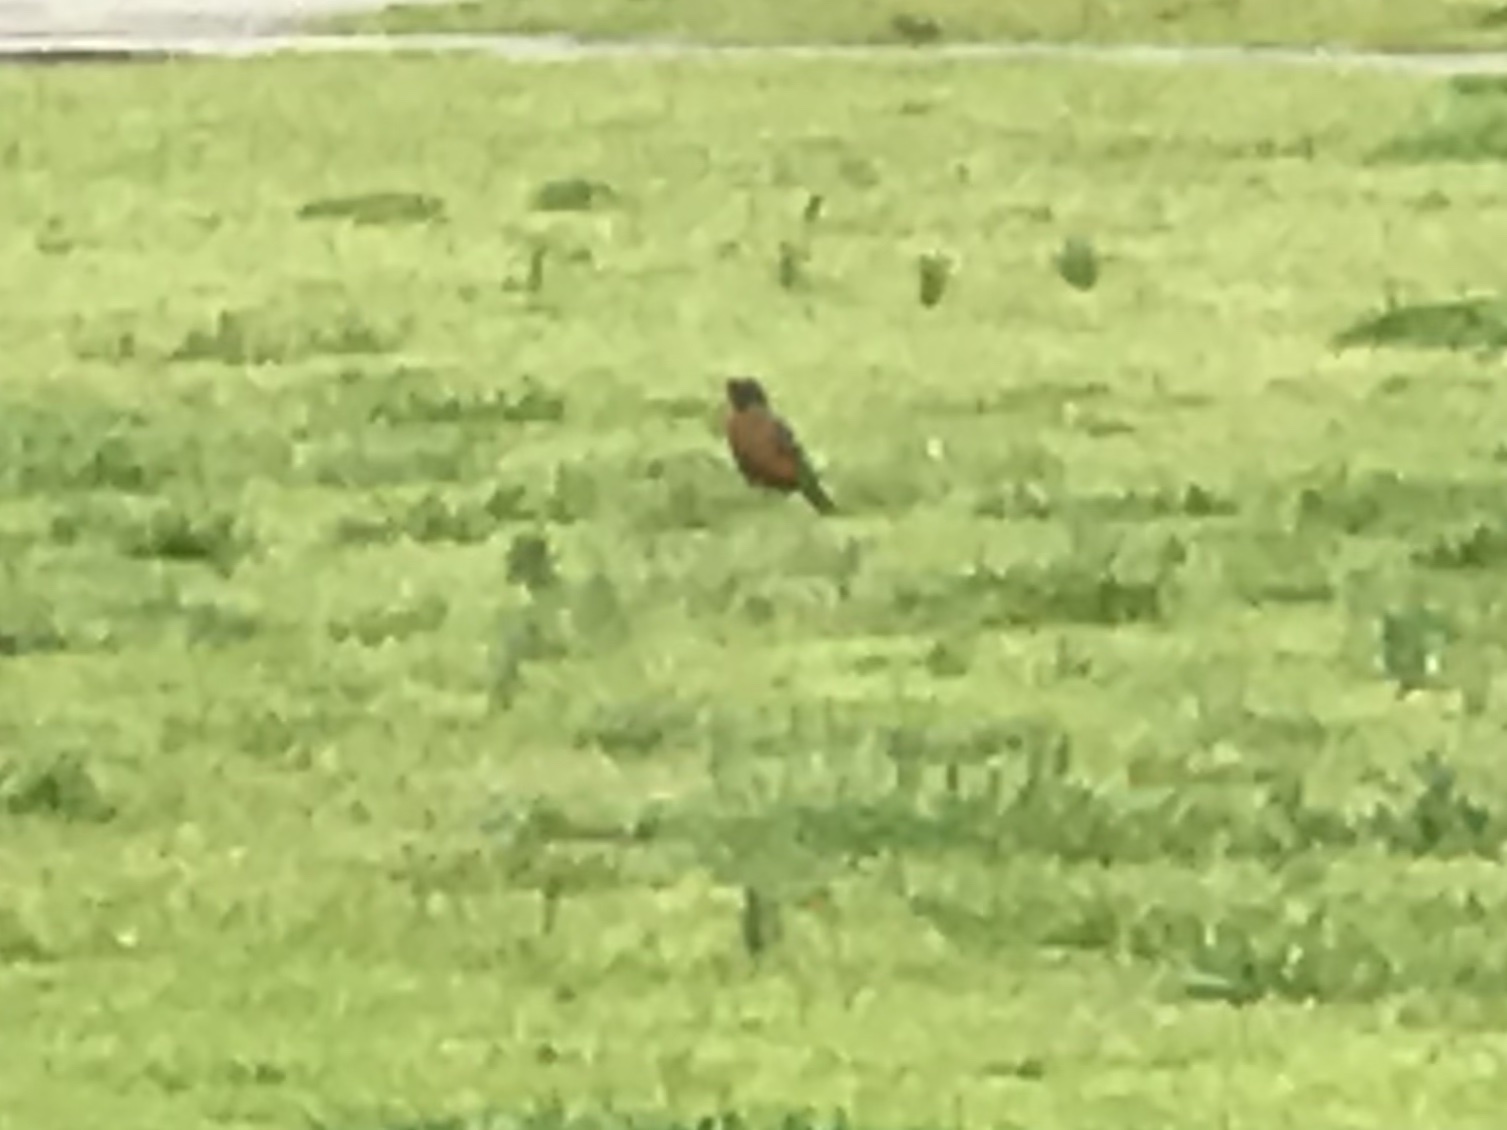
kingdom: Animalia
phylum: Chordata
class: Aves
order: Passeriformes
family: Turdidae
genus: Turdus
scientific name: Turdus migratorius
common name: American robin
